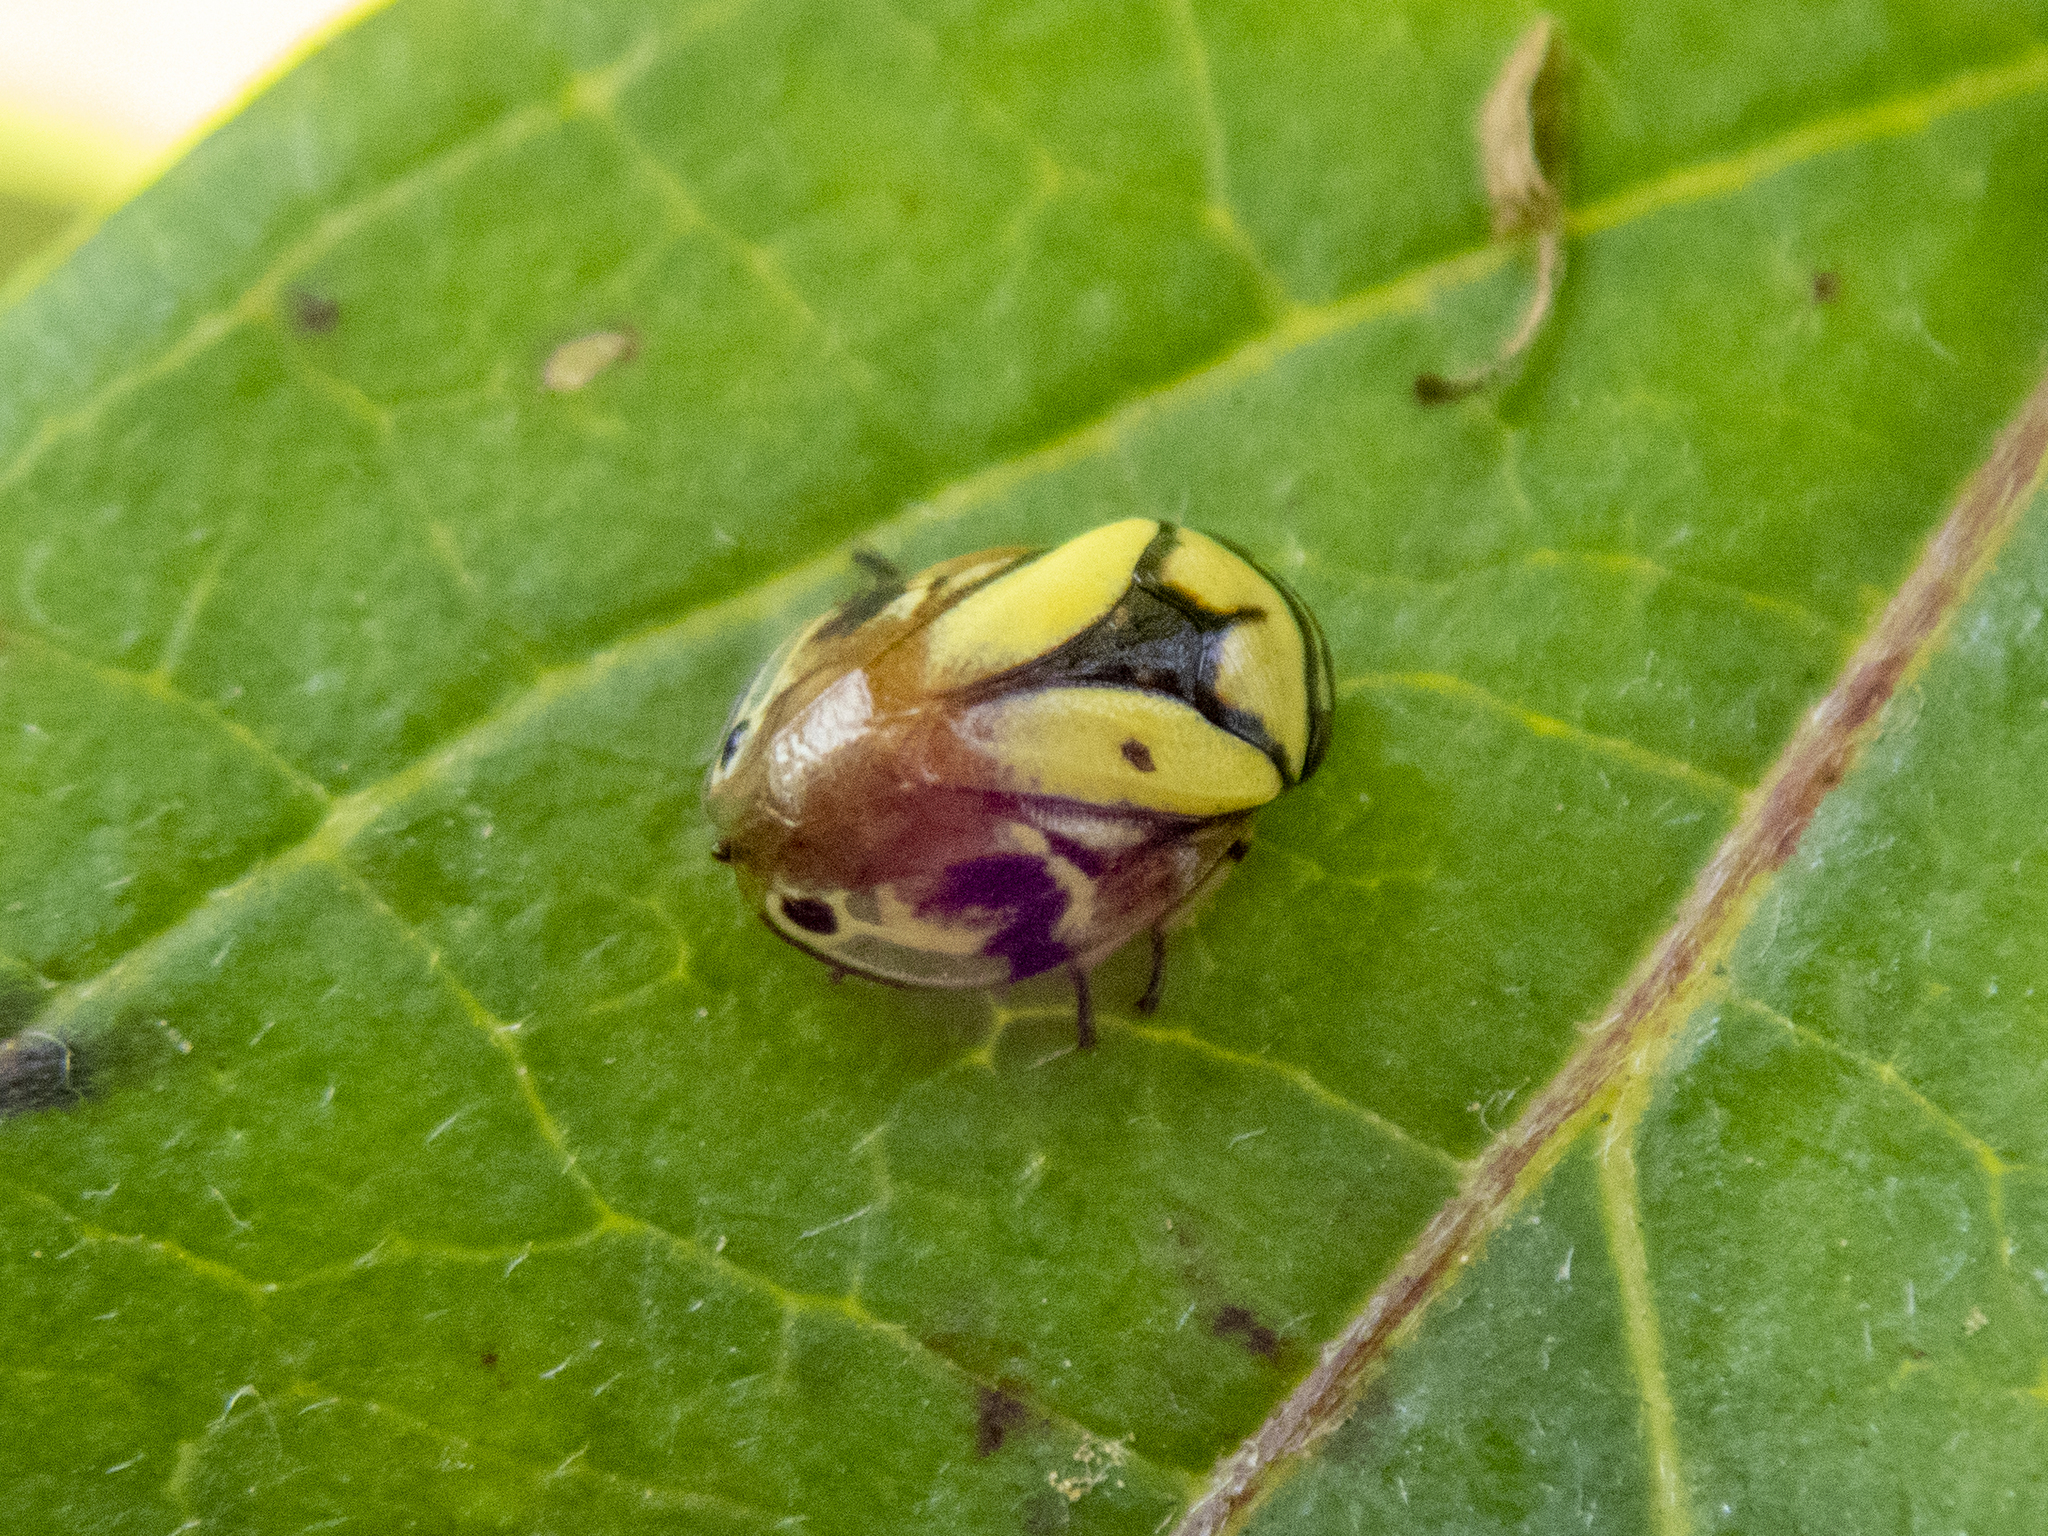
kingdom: Animalia
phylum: Arthropoda
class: Insecta
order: Hemiptera
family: Clastopteridae
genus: Clastoptera
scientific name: Clastoptera proteus
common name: Dogwood spittlebug
